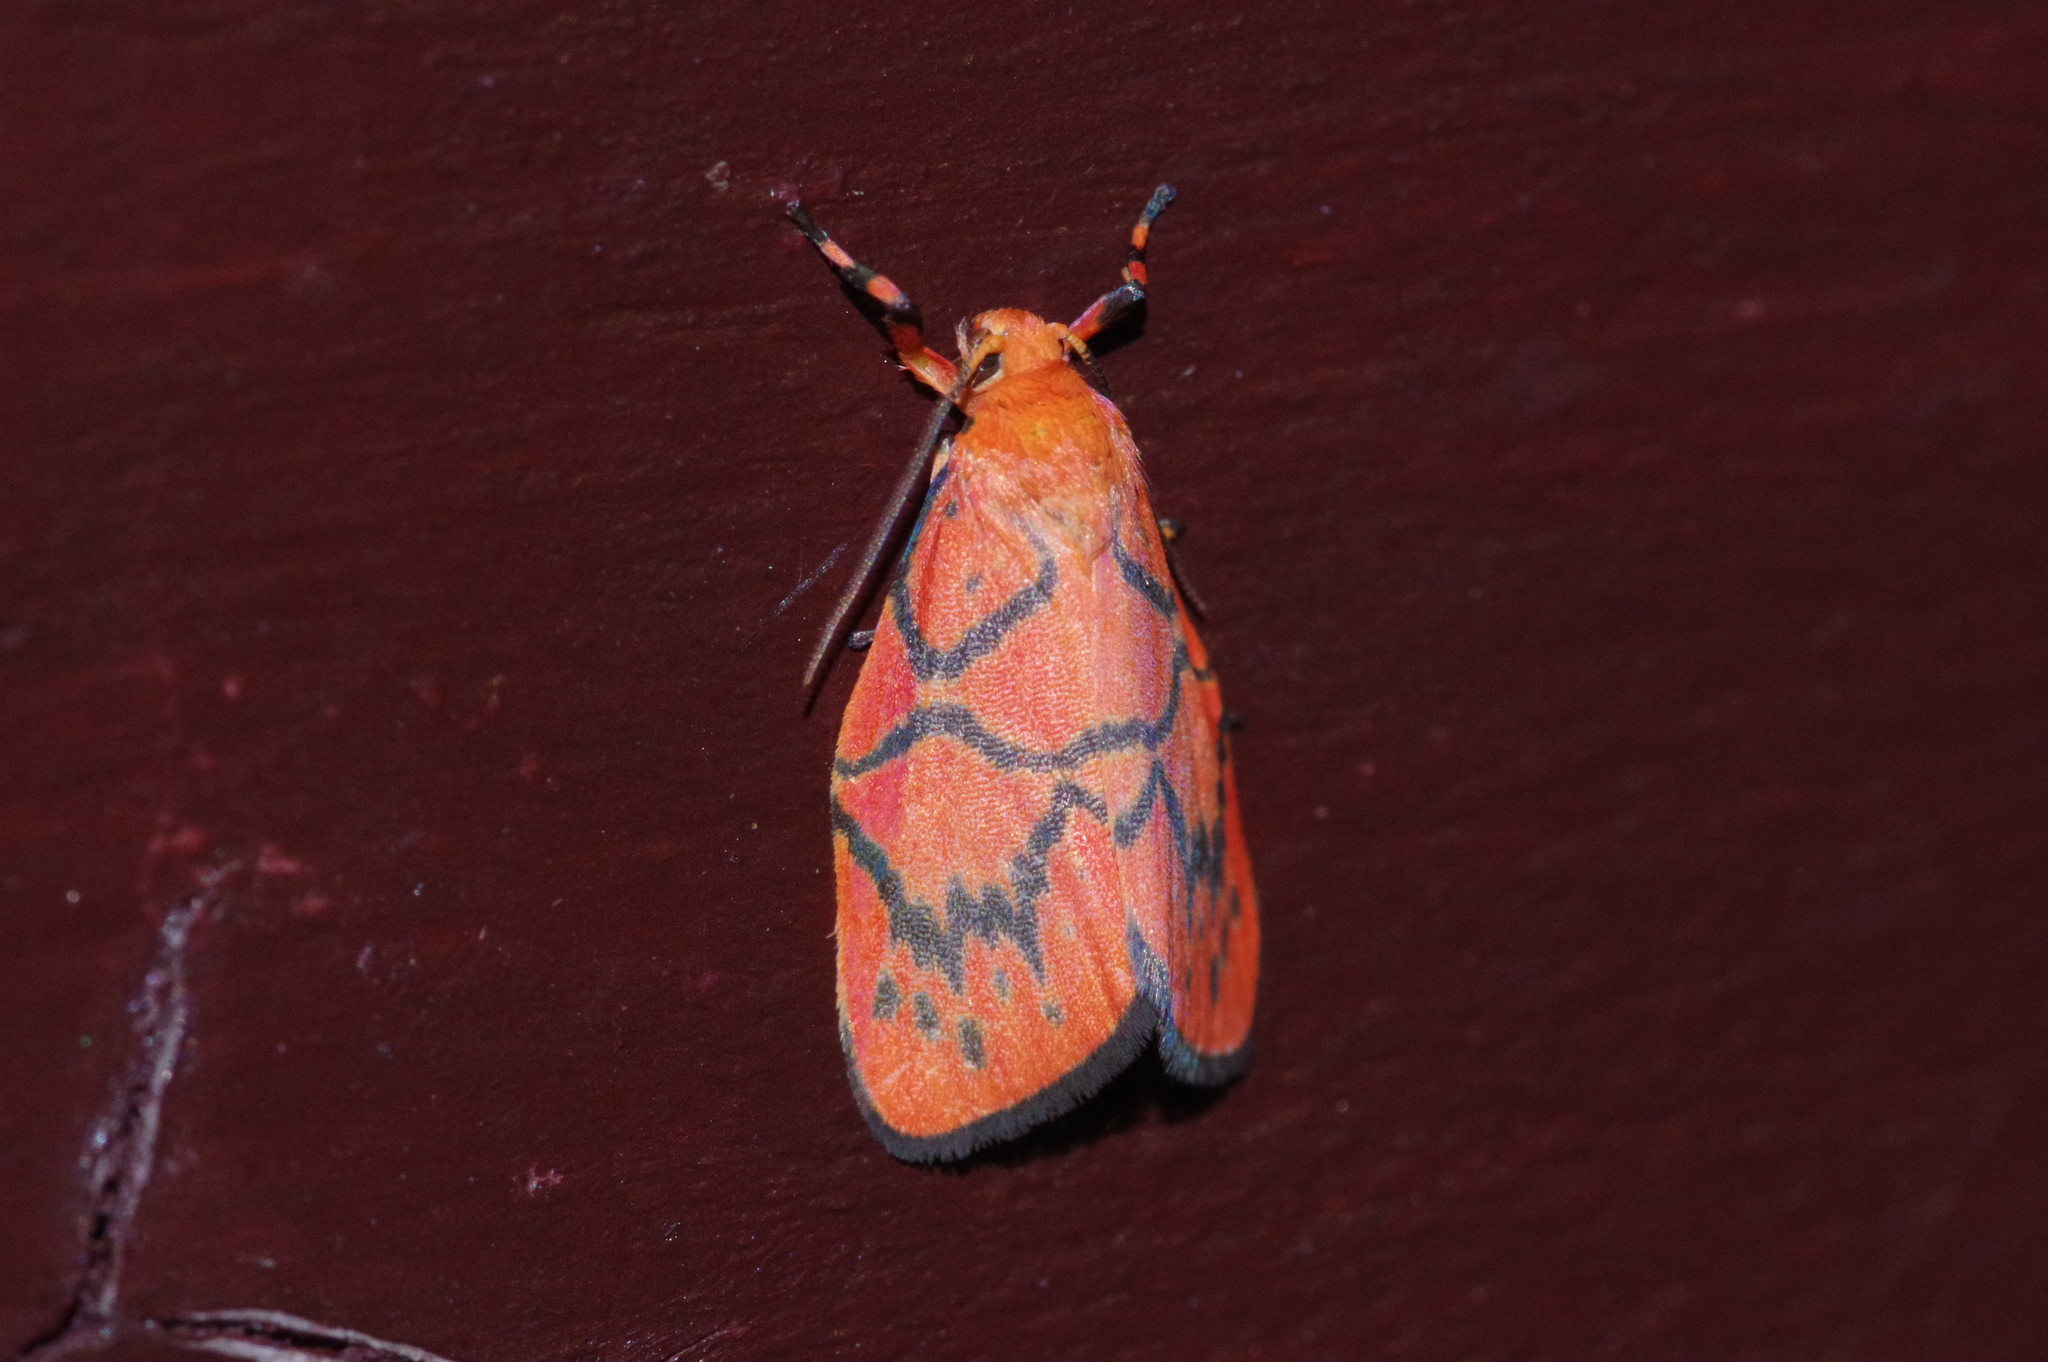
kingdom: Animalia
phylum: Arthropoda
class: Insecta
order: Lepidoptera
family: Erebidae
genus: Aberrasine
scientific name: Aberrasine aberrans
